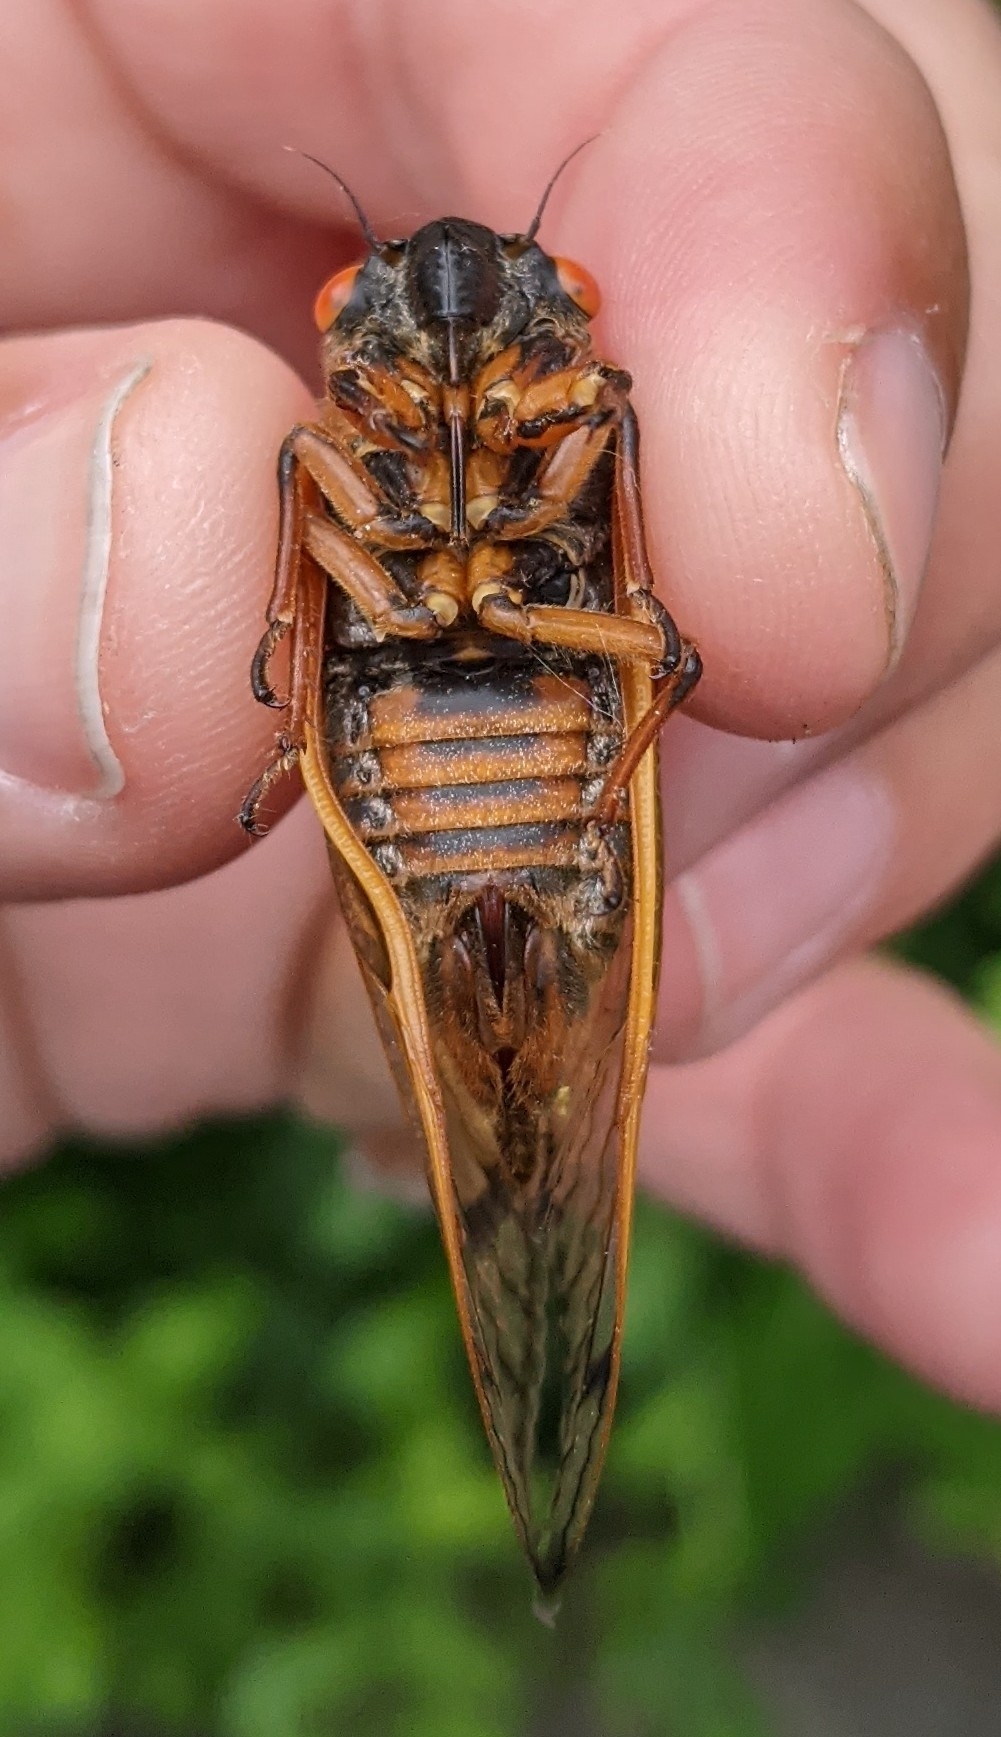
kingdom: Animalia
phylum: Arthropoda
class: Insecta
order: Hemiptera
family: Cicadidae
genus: Magicicada
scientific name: Magicicada septendecim
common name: Periodical cicada
